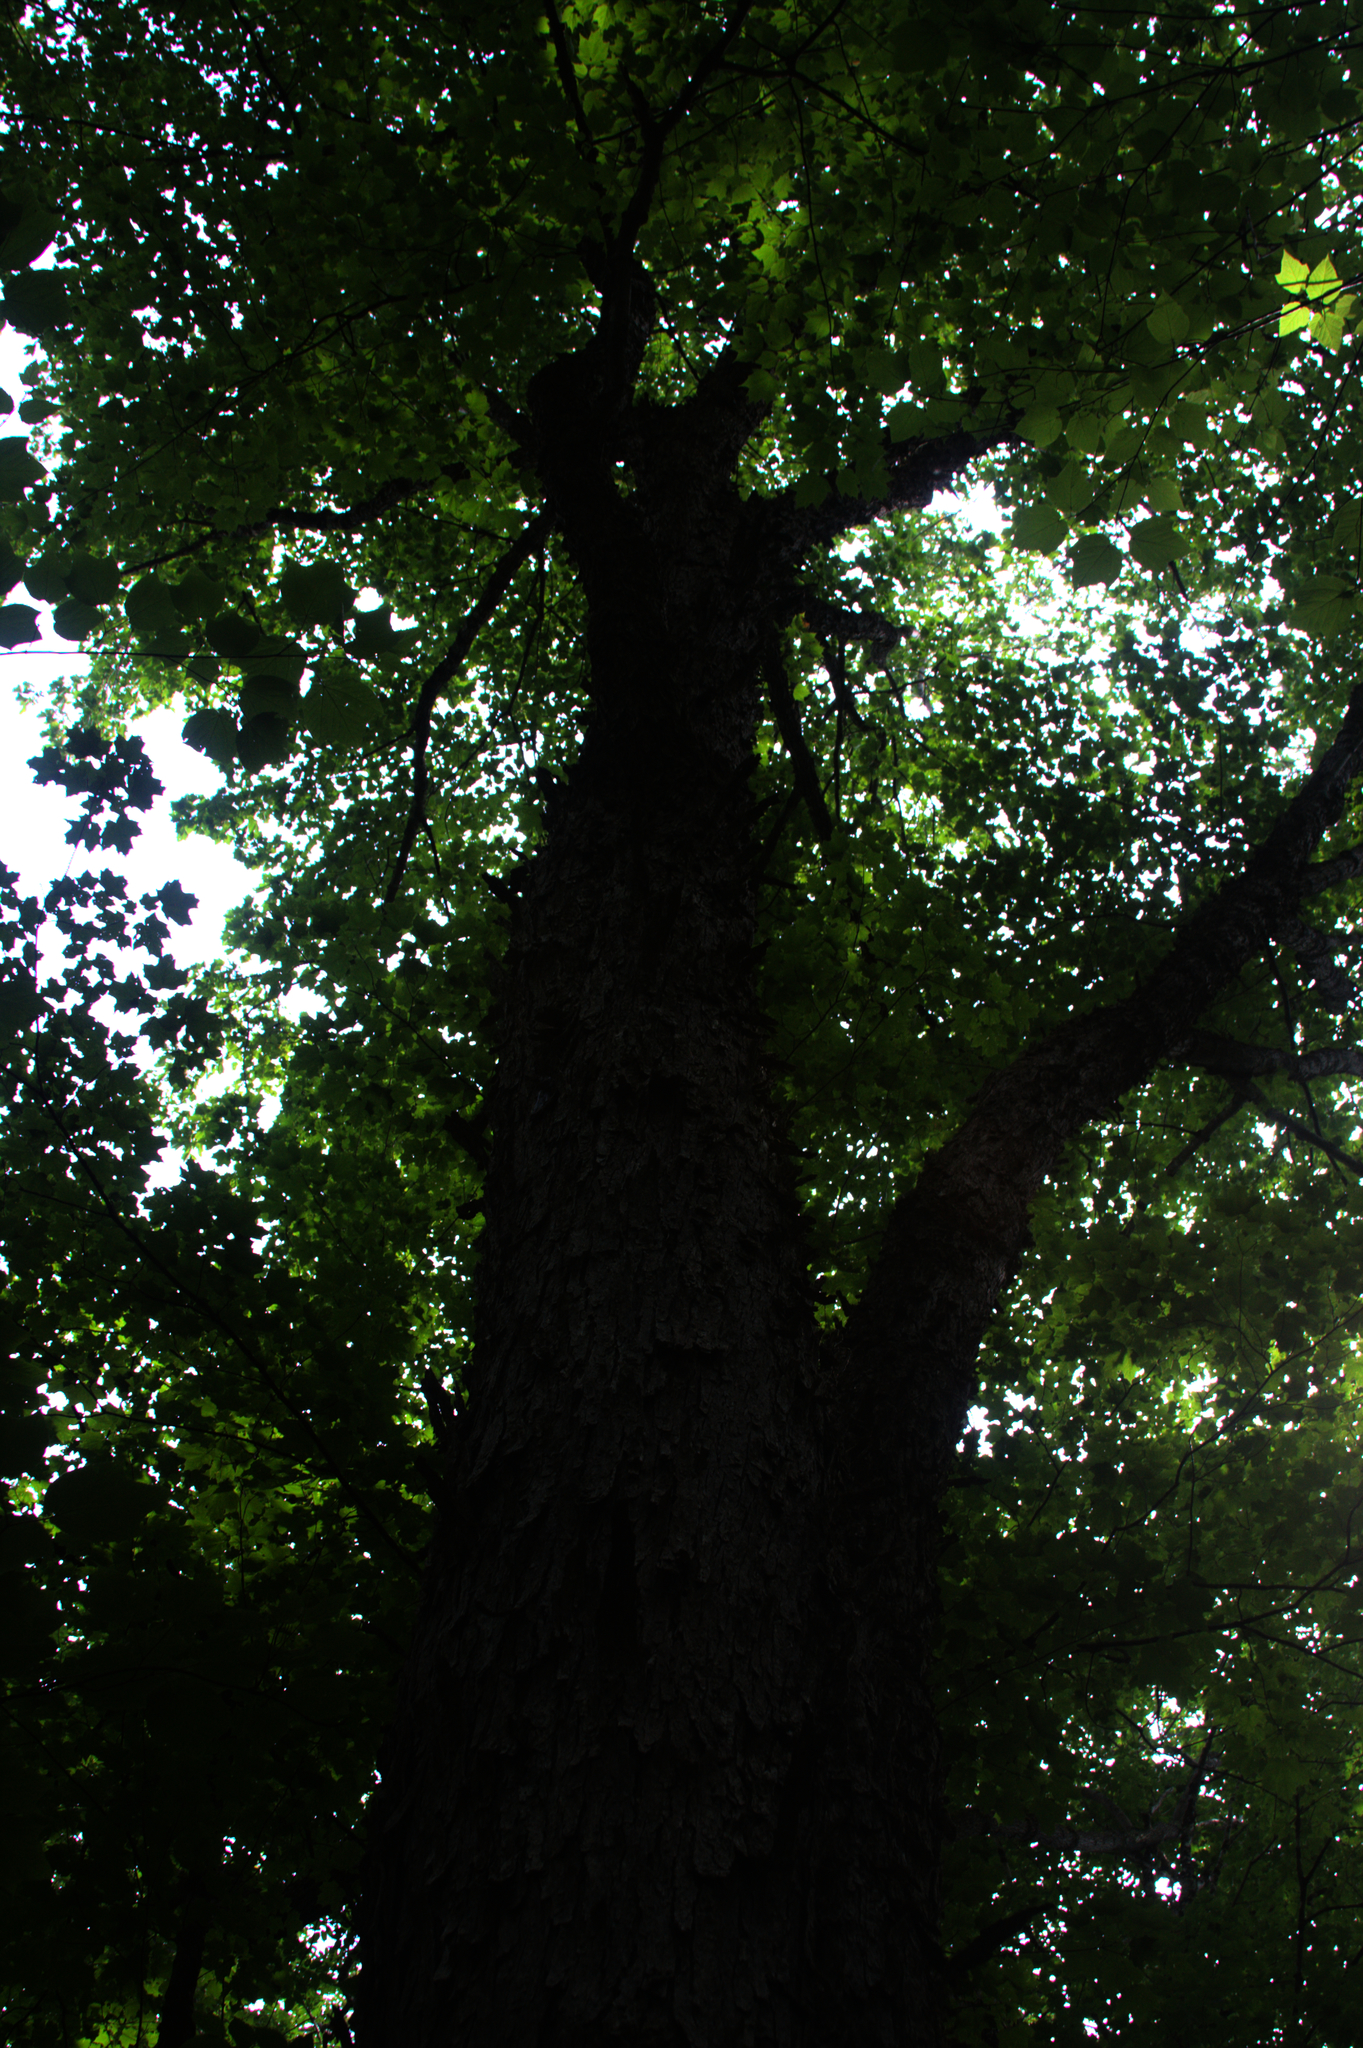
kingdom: Plantae
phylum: Tracheophyta
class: Magnoliopsida
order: Sapindales
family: Sapindaceae
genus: Acer
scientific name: Acer rubrum
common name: Red maple
